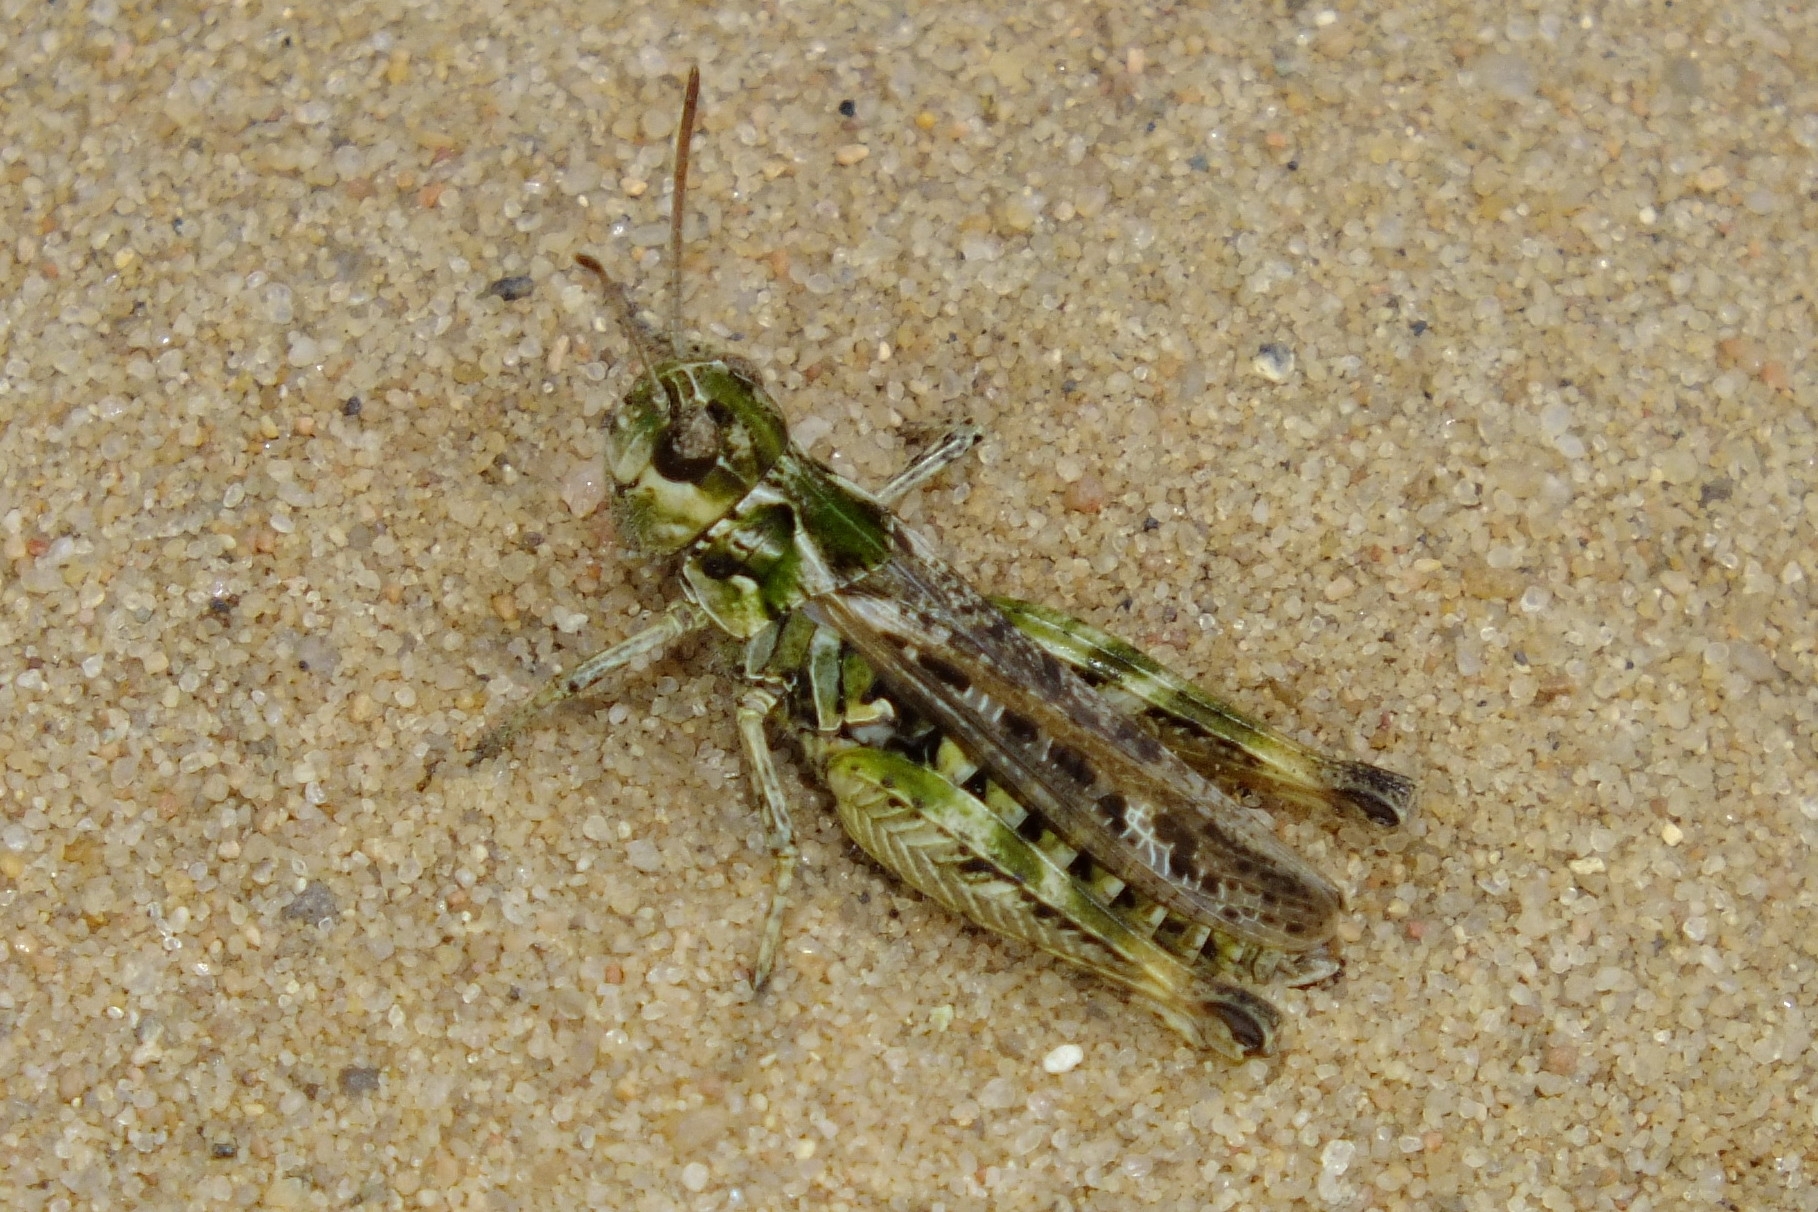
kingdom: Animalia
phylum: Arthropoda
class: Insecta
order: Orthoptera
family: Acrididae
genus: Myrmeleotettix
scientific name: Myrmeleotettix maculatus
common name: Mottled grasshopper
